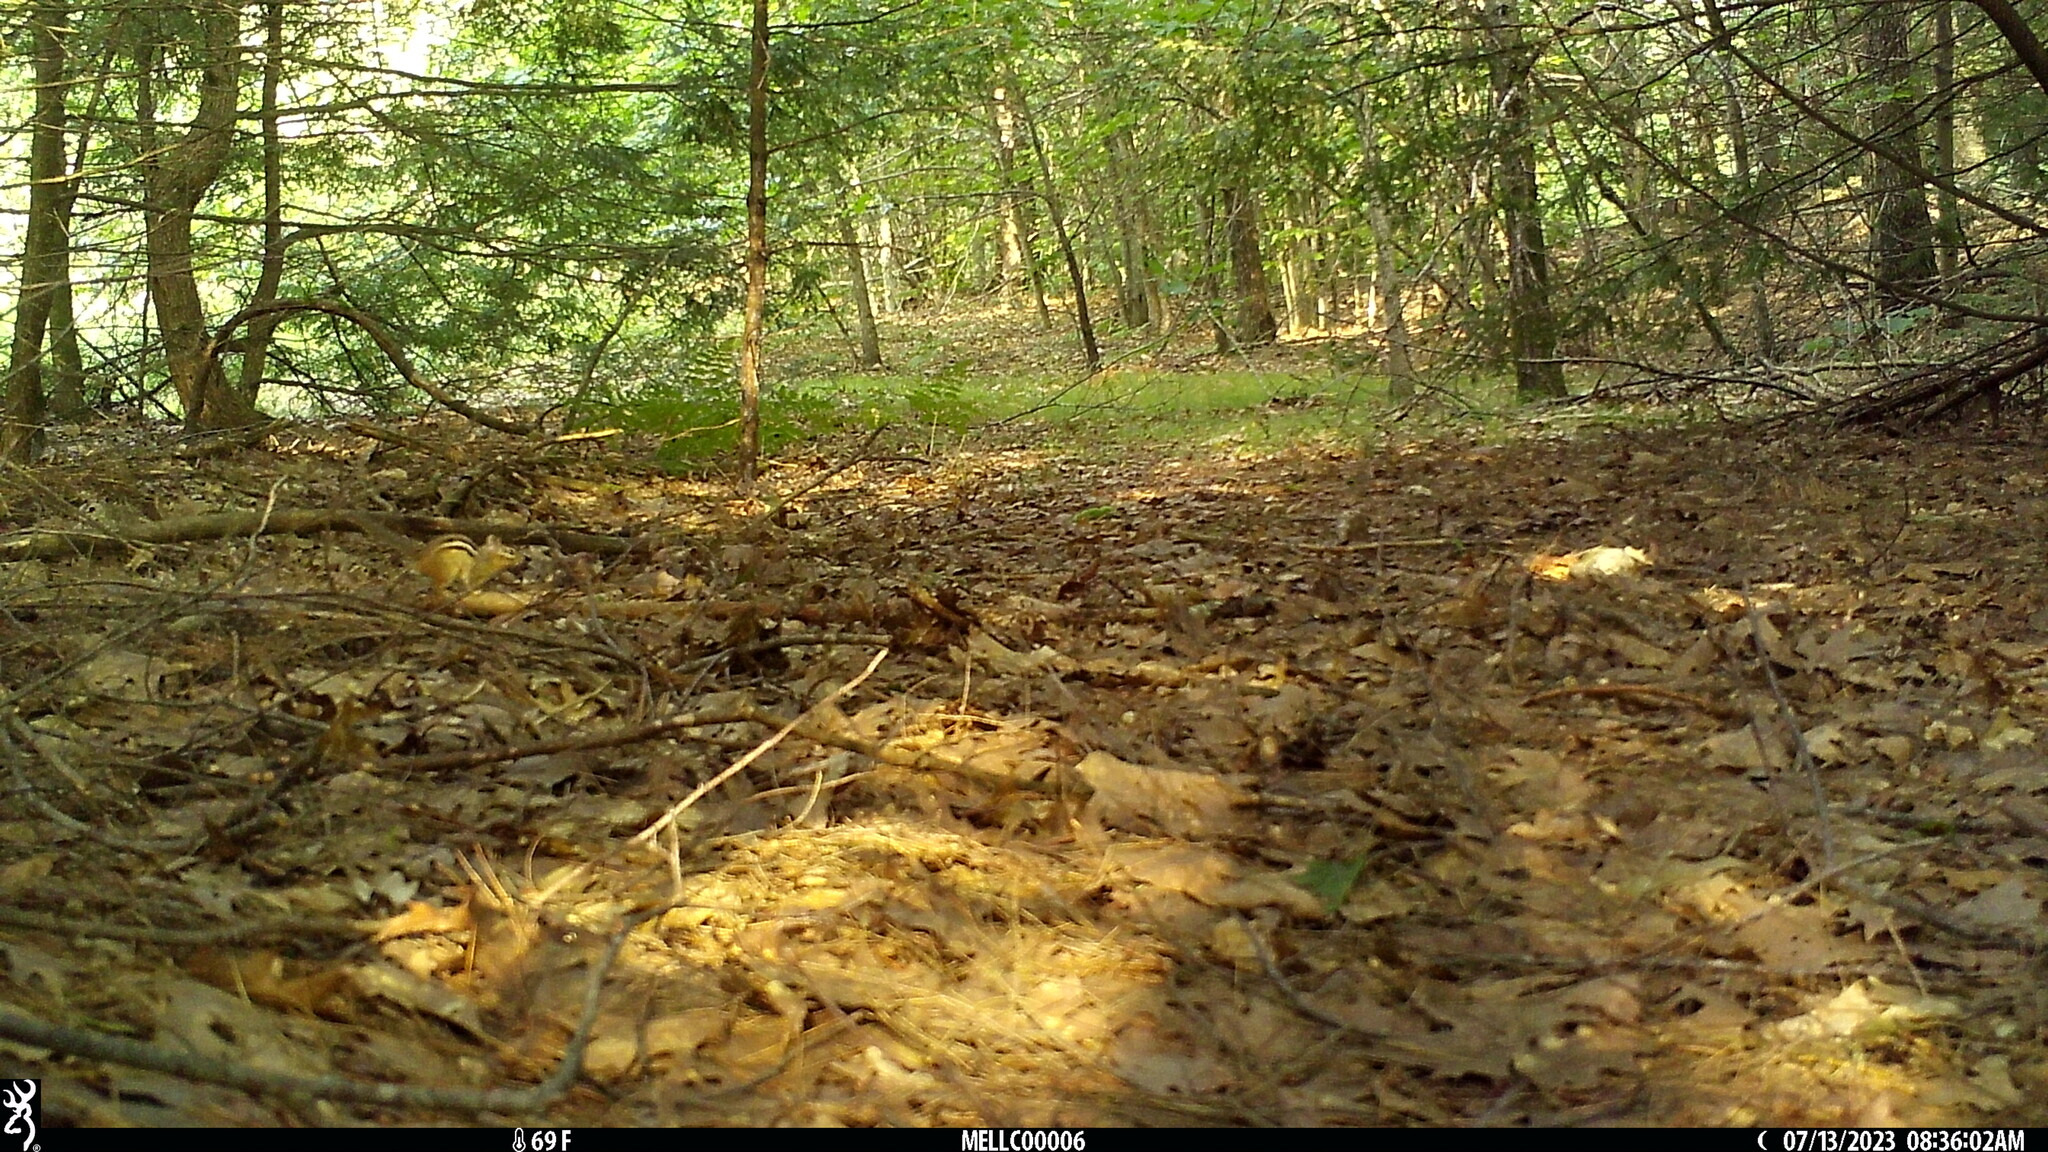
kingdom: Animalia
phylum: Chordata
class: Mammalia
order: Rodentia
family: Sciuridae
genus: Tamias
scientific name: Tamias striatus
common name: Eastern chipmunk
